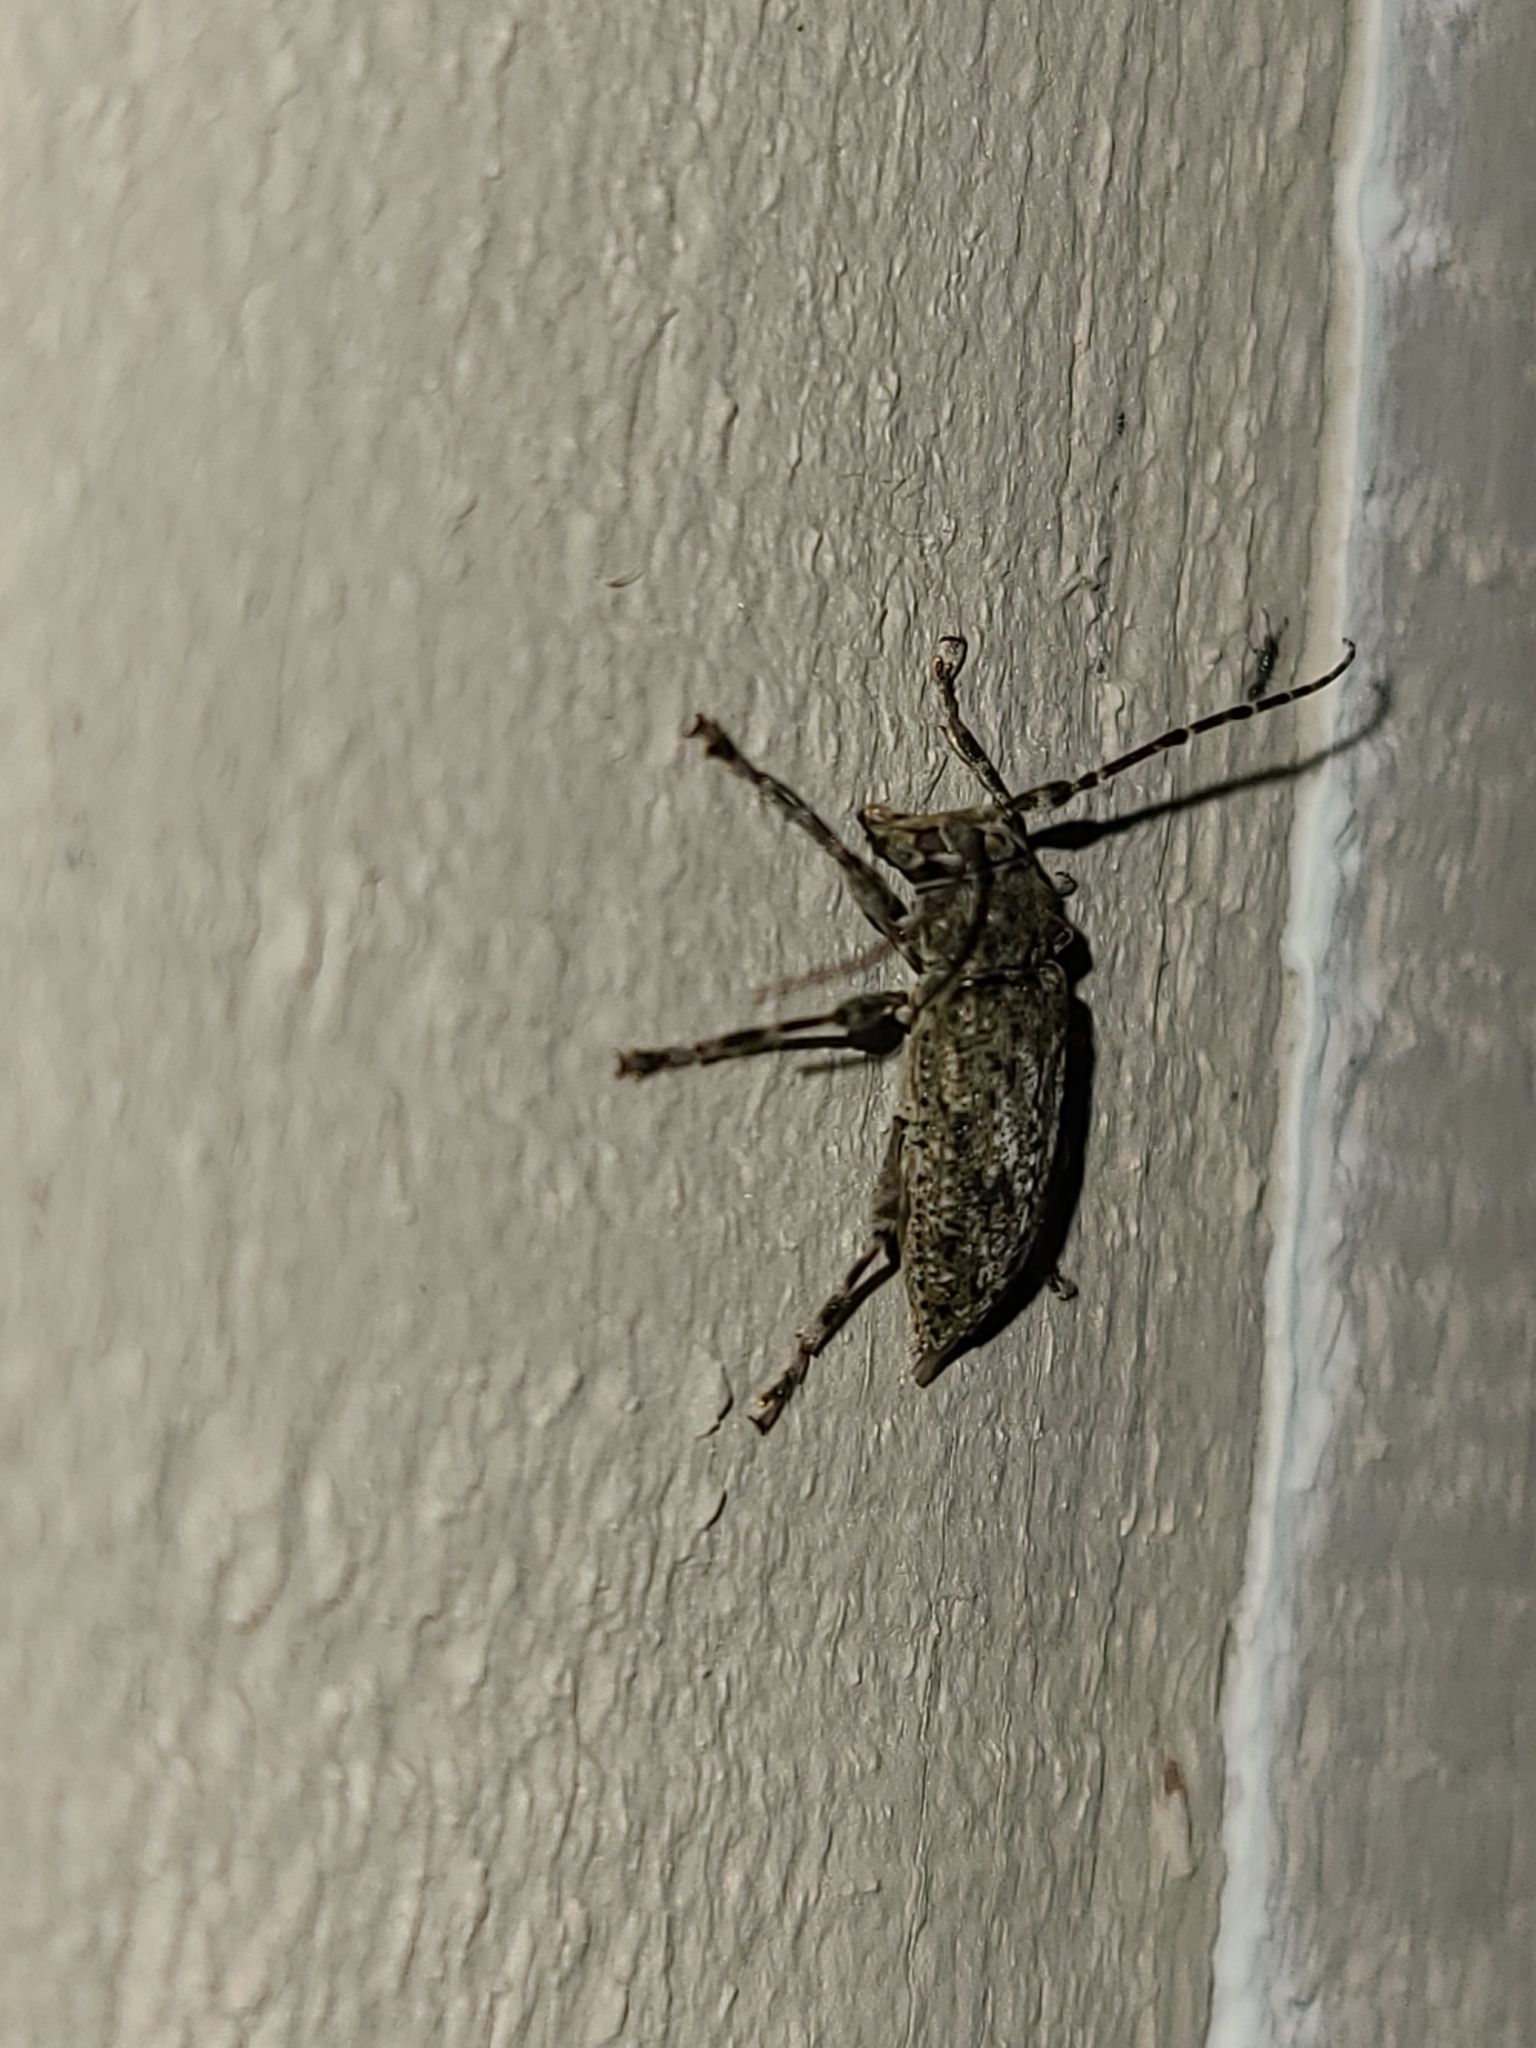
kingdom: Animalia
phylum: Arthropoda
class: Insecta
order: Coleoptera
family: Cerambycidae
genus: Aegomorphus
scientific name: Aegomorphus modestus
